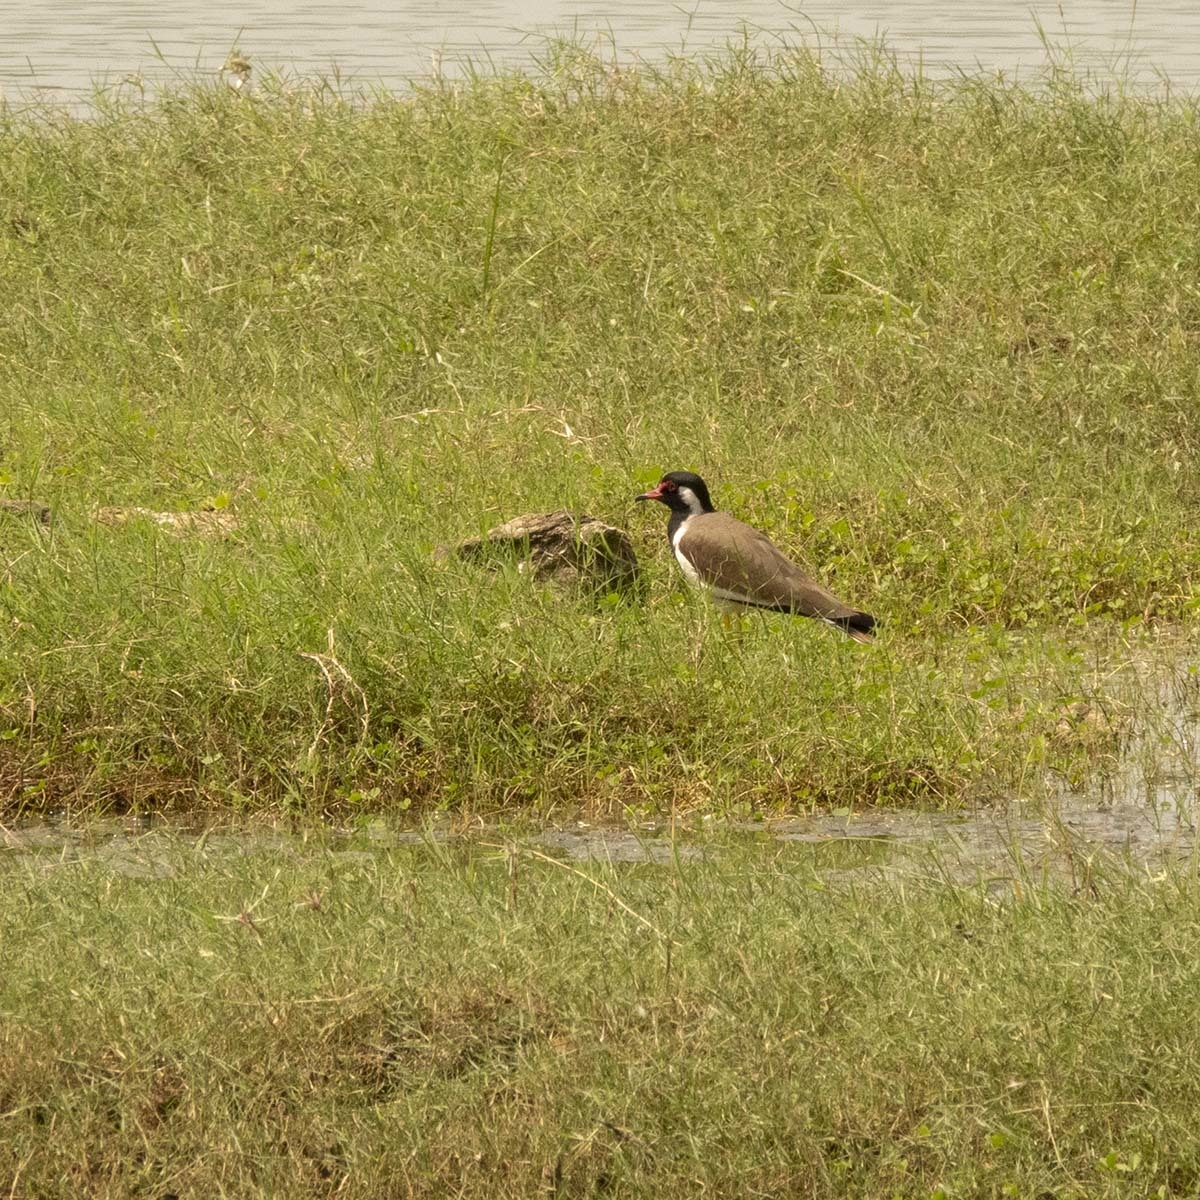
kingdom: Animalia
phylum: Chordata
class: Aves
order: Charadriiformes
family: Charadriidae
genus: Vanellus
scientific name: Vanellus indicus
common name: Red-wattled lapwing
